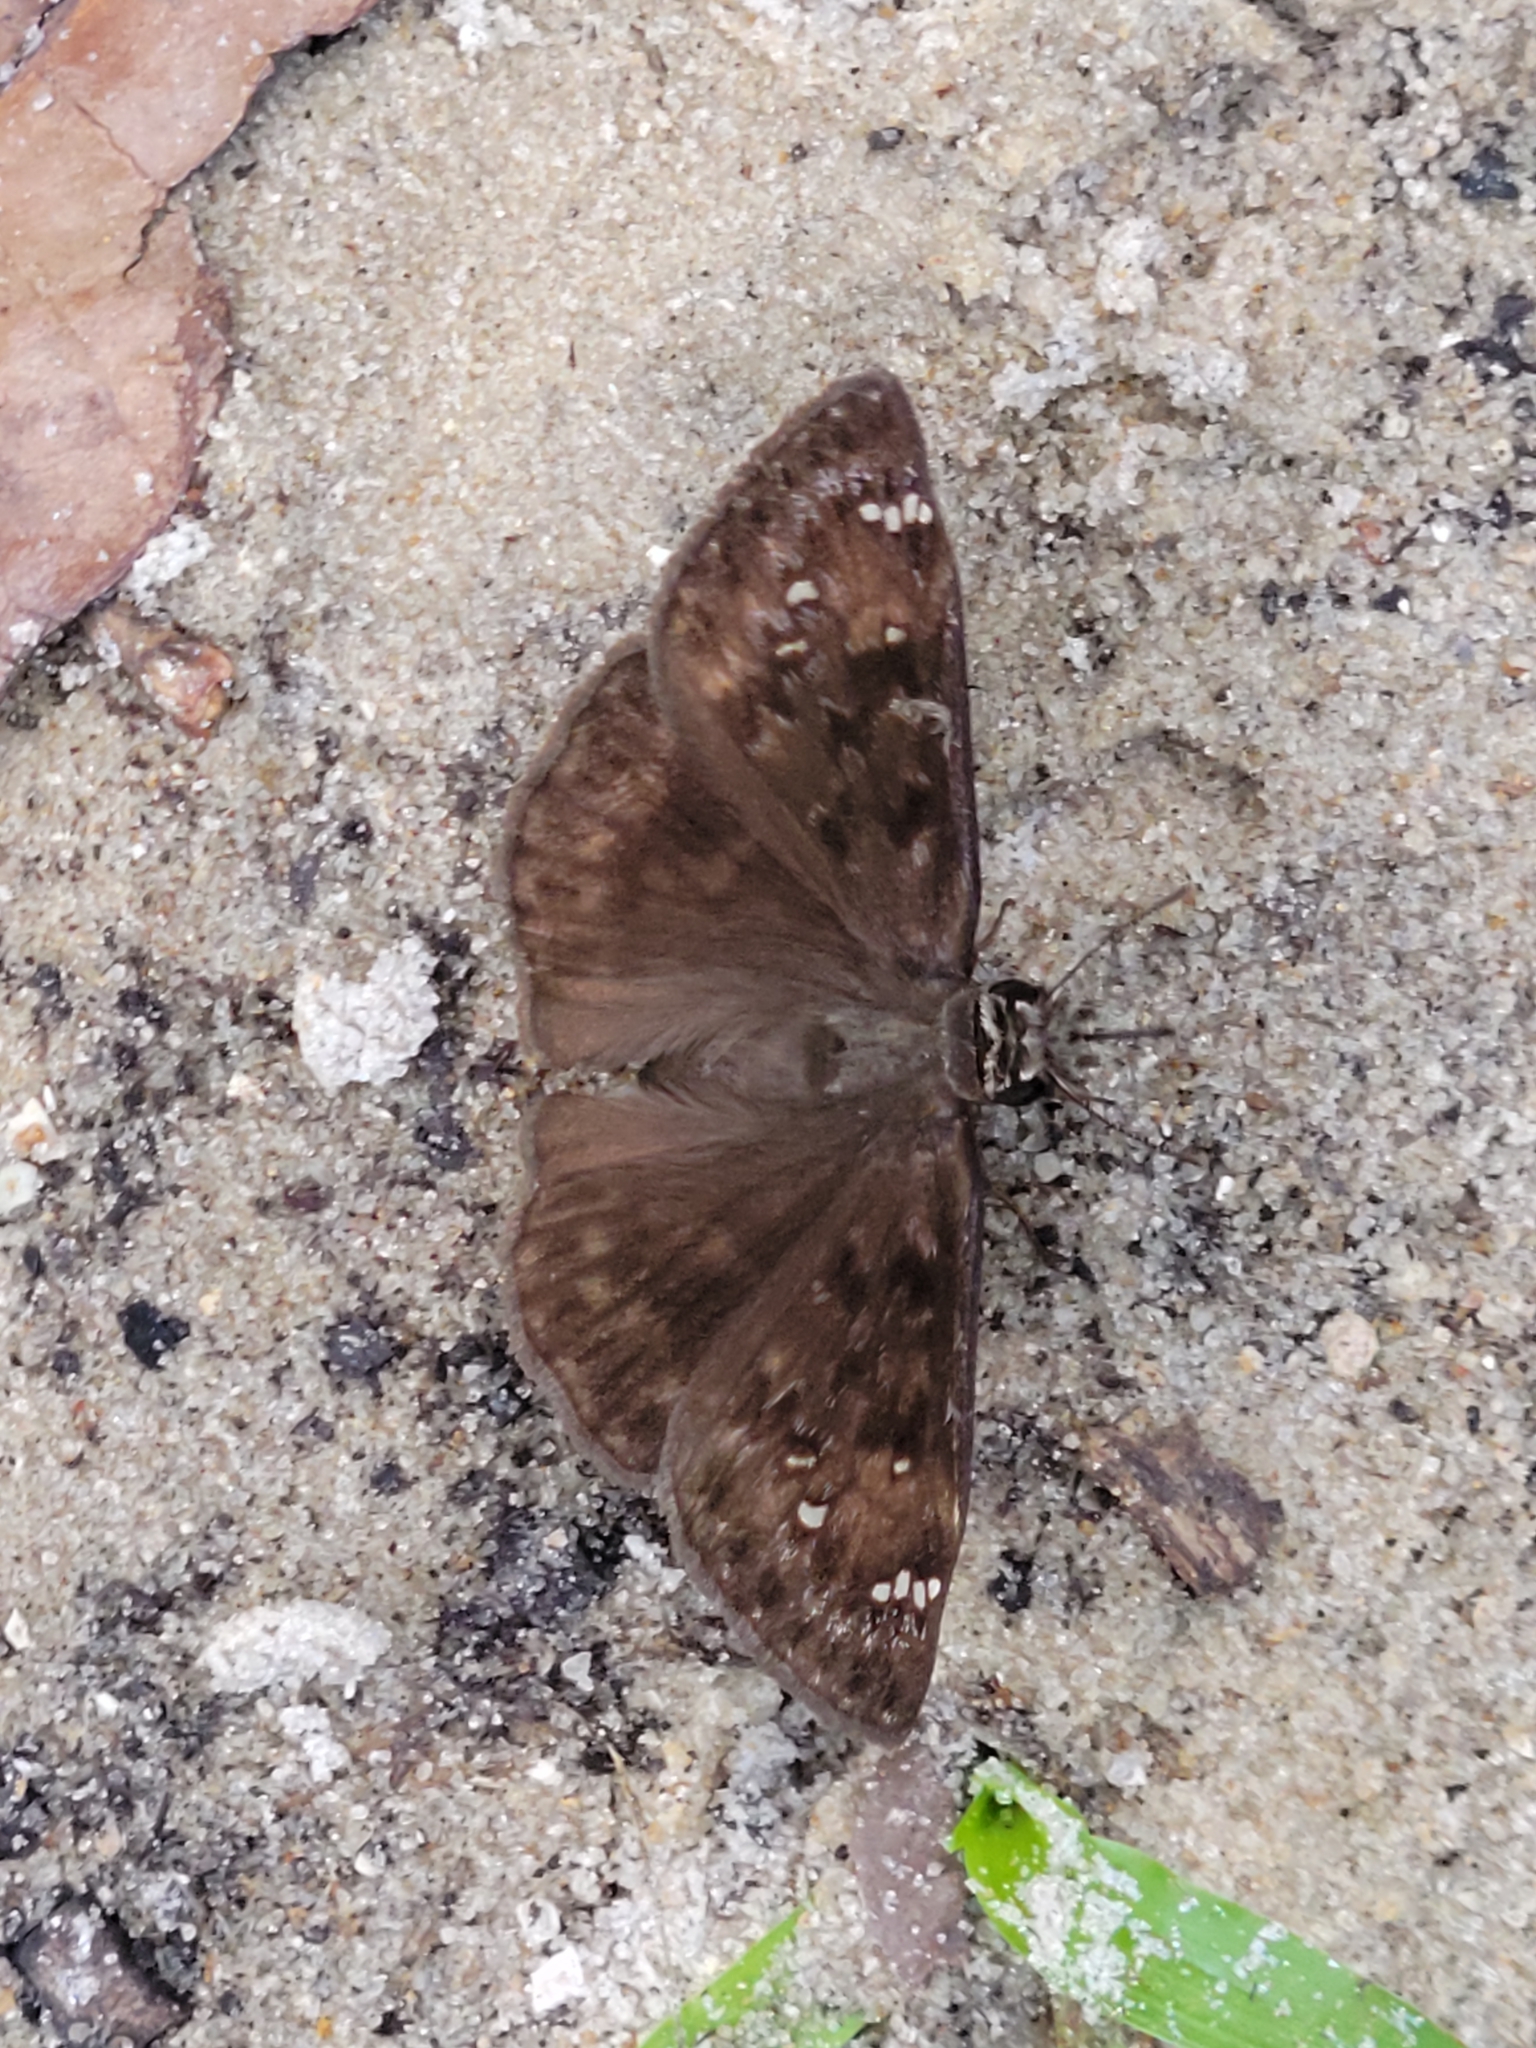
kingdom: Animalia
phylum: Arthropoda
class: Insecta
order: Lepidoptera
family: Hesperiidae
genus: Erynnis
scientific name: Erynnis horatius
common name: Horace's duskywing
